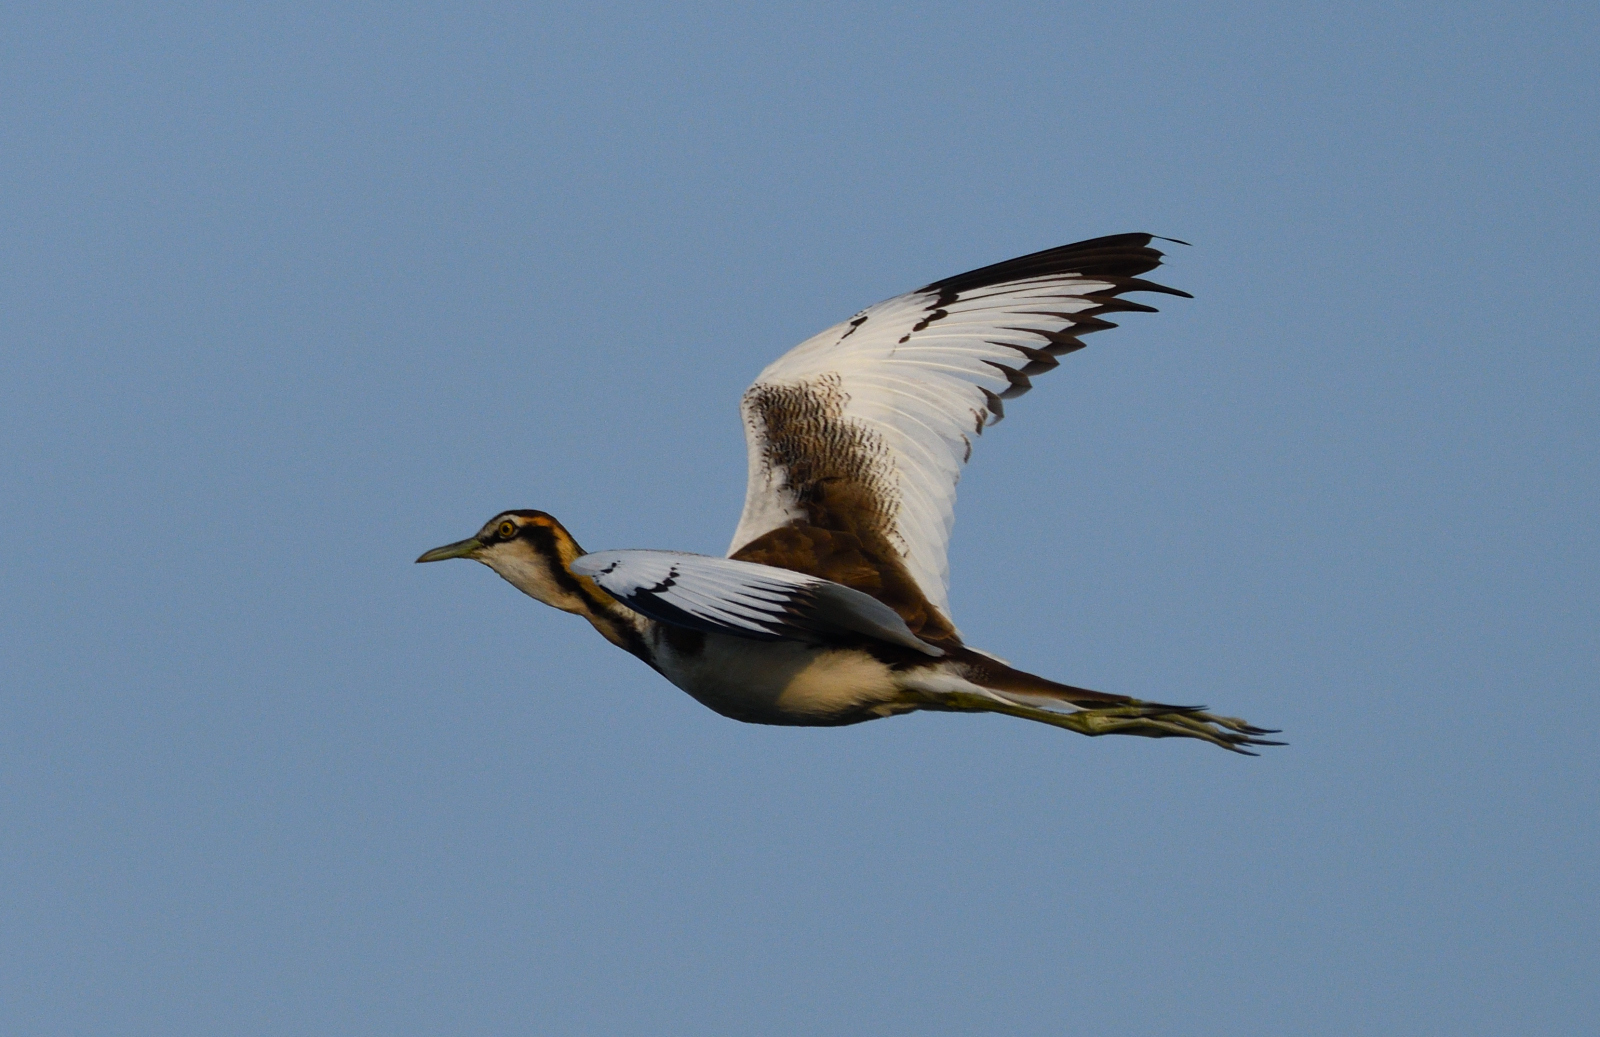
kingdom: Animalia
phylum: Chordata
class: Aves
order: Charadriiformes
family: Jacanidae
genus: Hydrophasianus
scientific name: Hydrophasianus chirurgus
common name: Pheasant-tailed jacana
